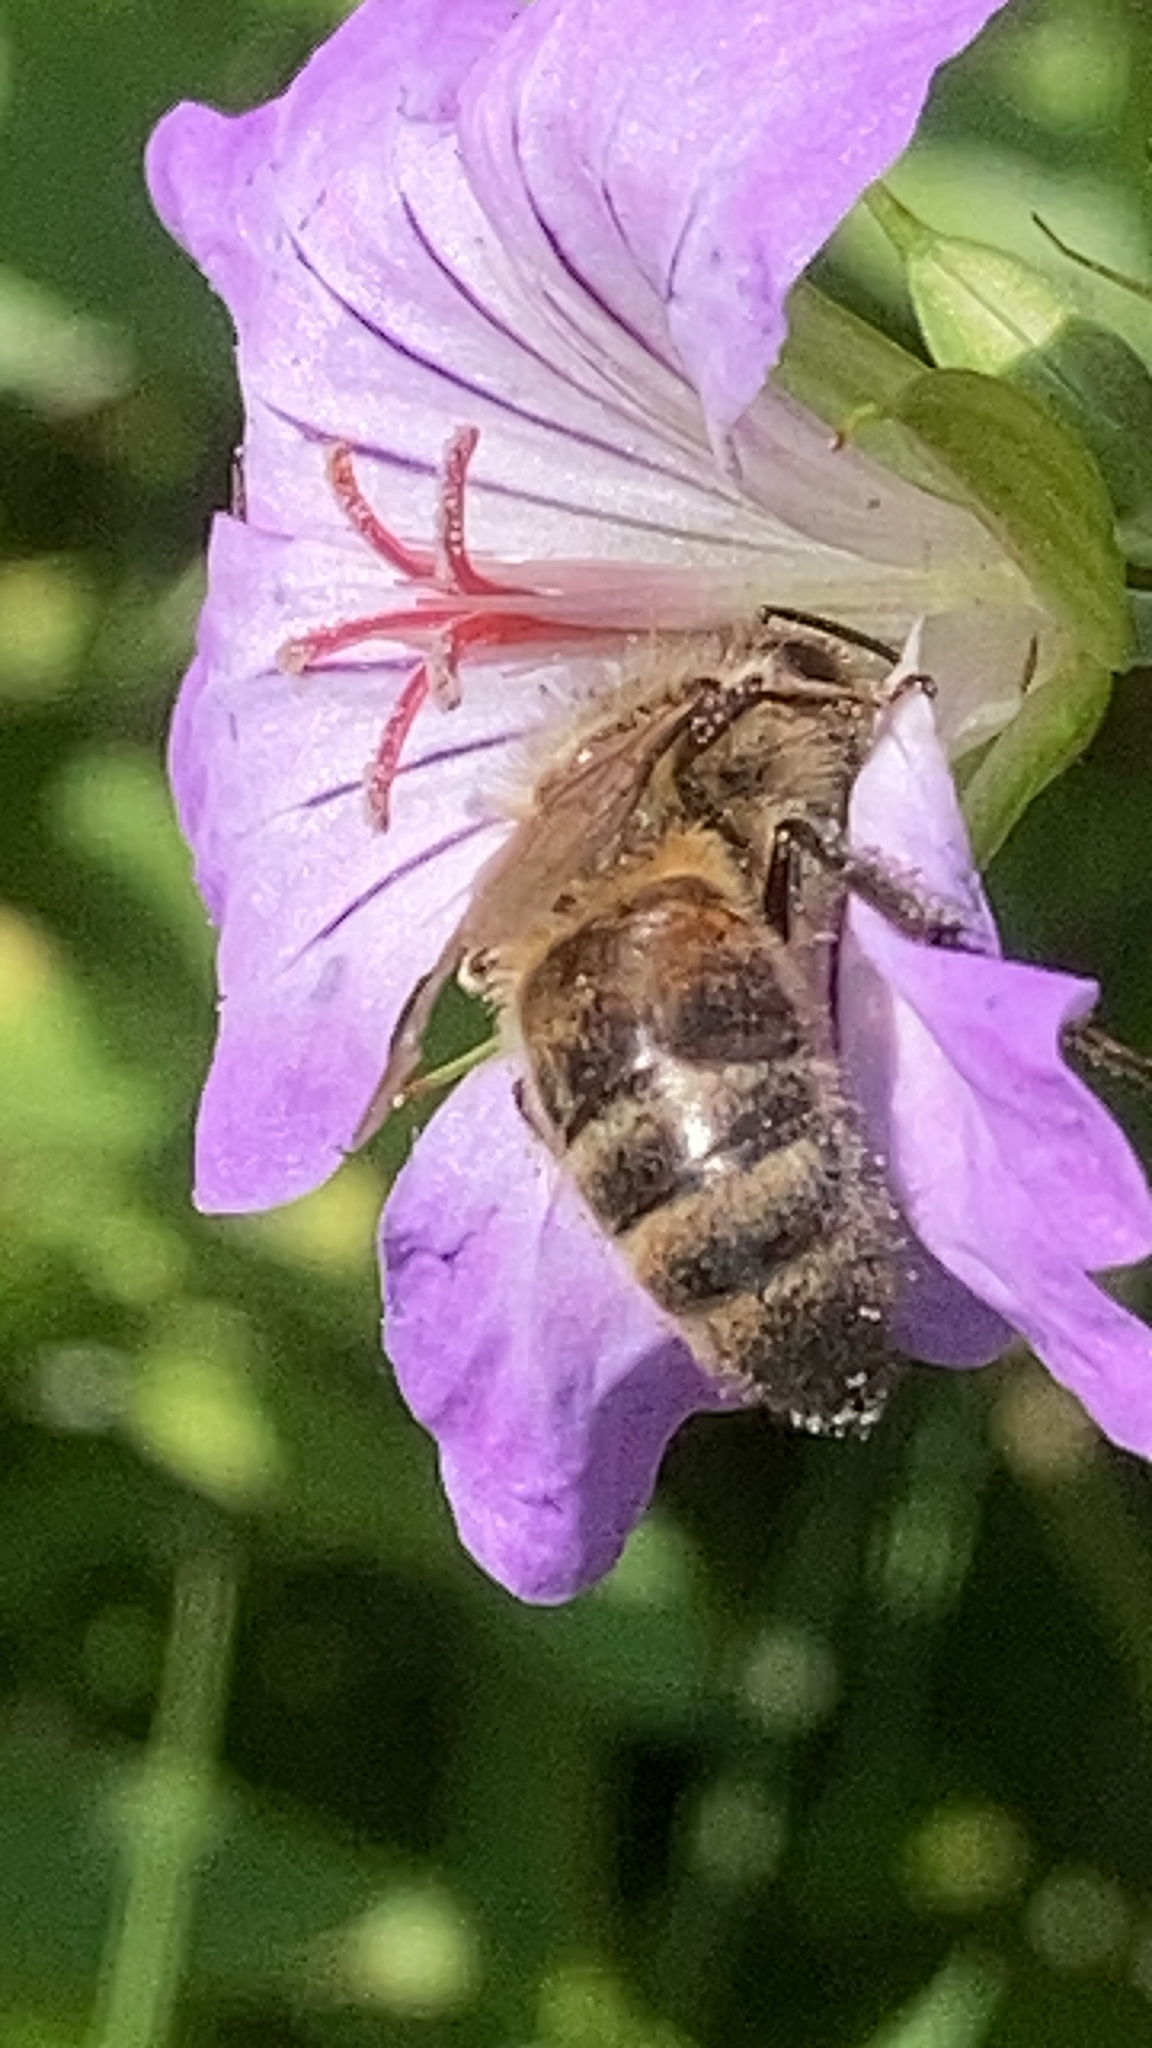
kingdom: Animalia
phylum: Arthropoda
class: Insecta
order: Hymenoptera
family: Apidae
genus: Apis
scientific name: Apis mellifera
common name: Honey bee
